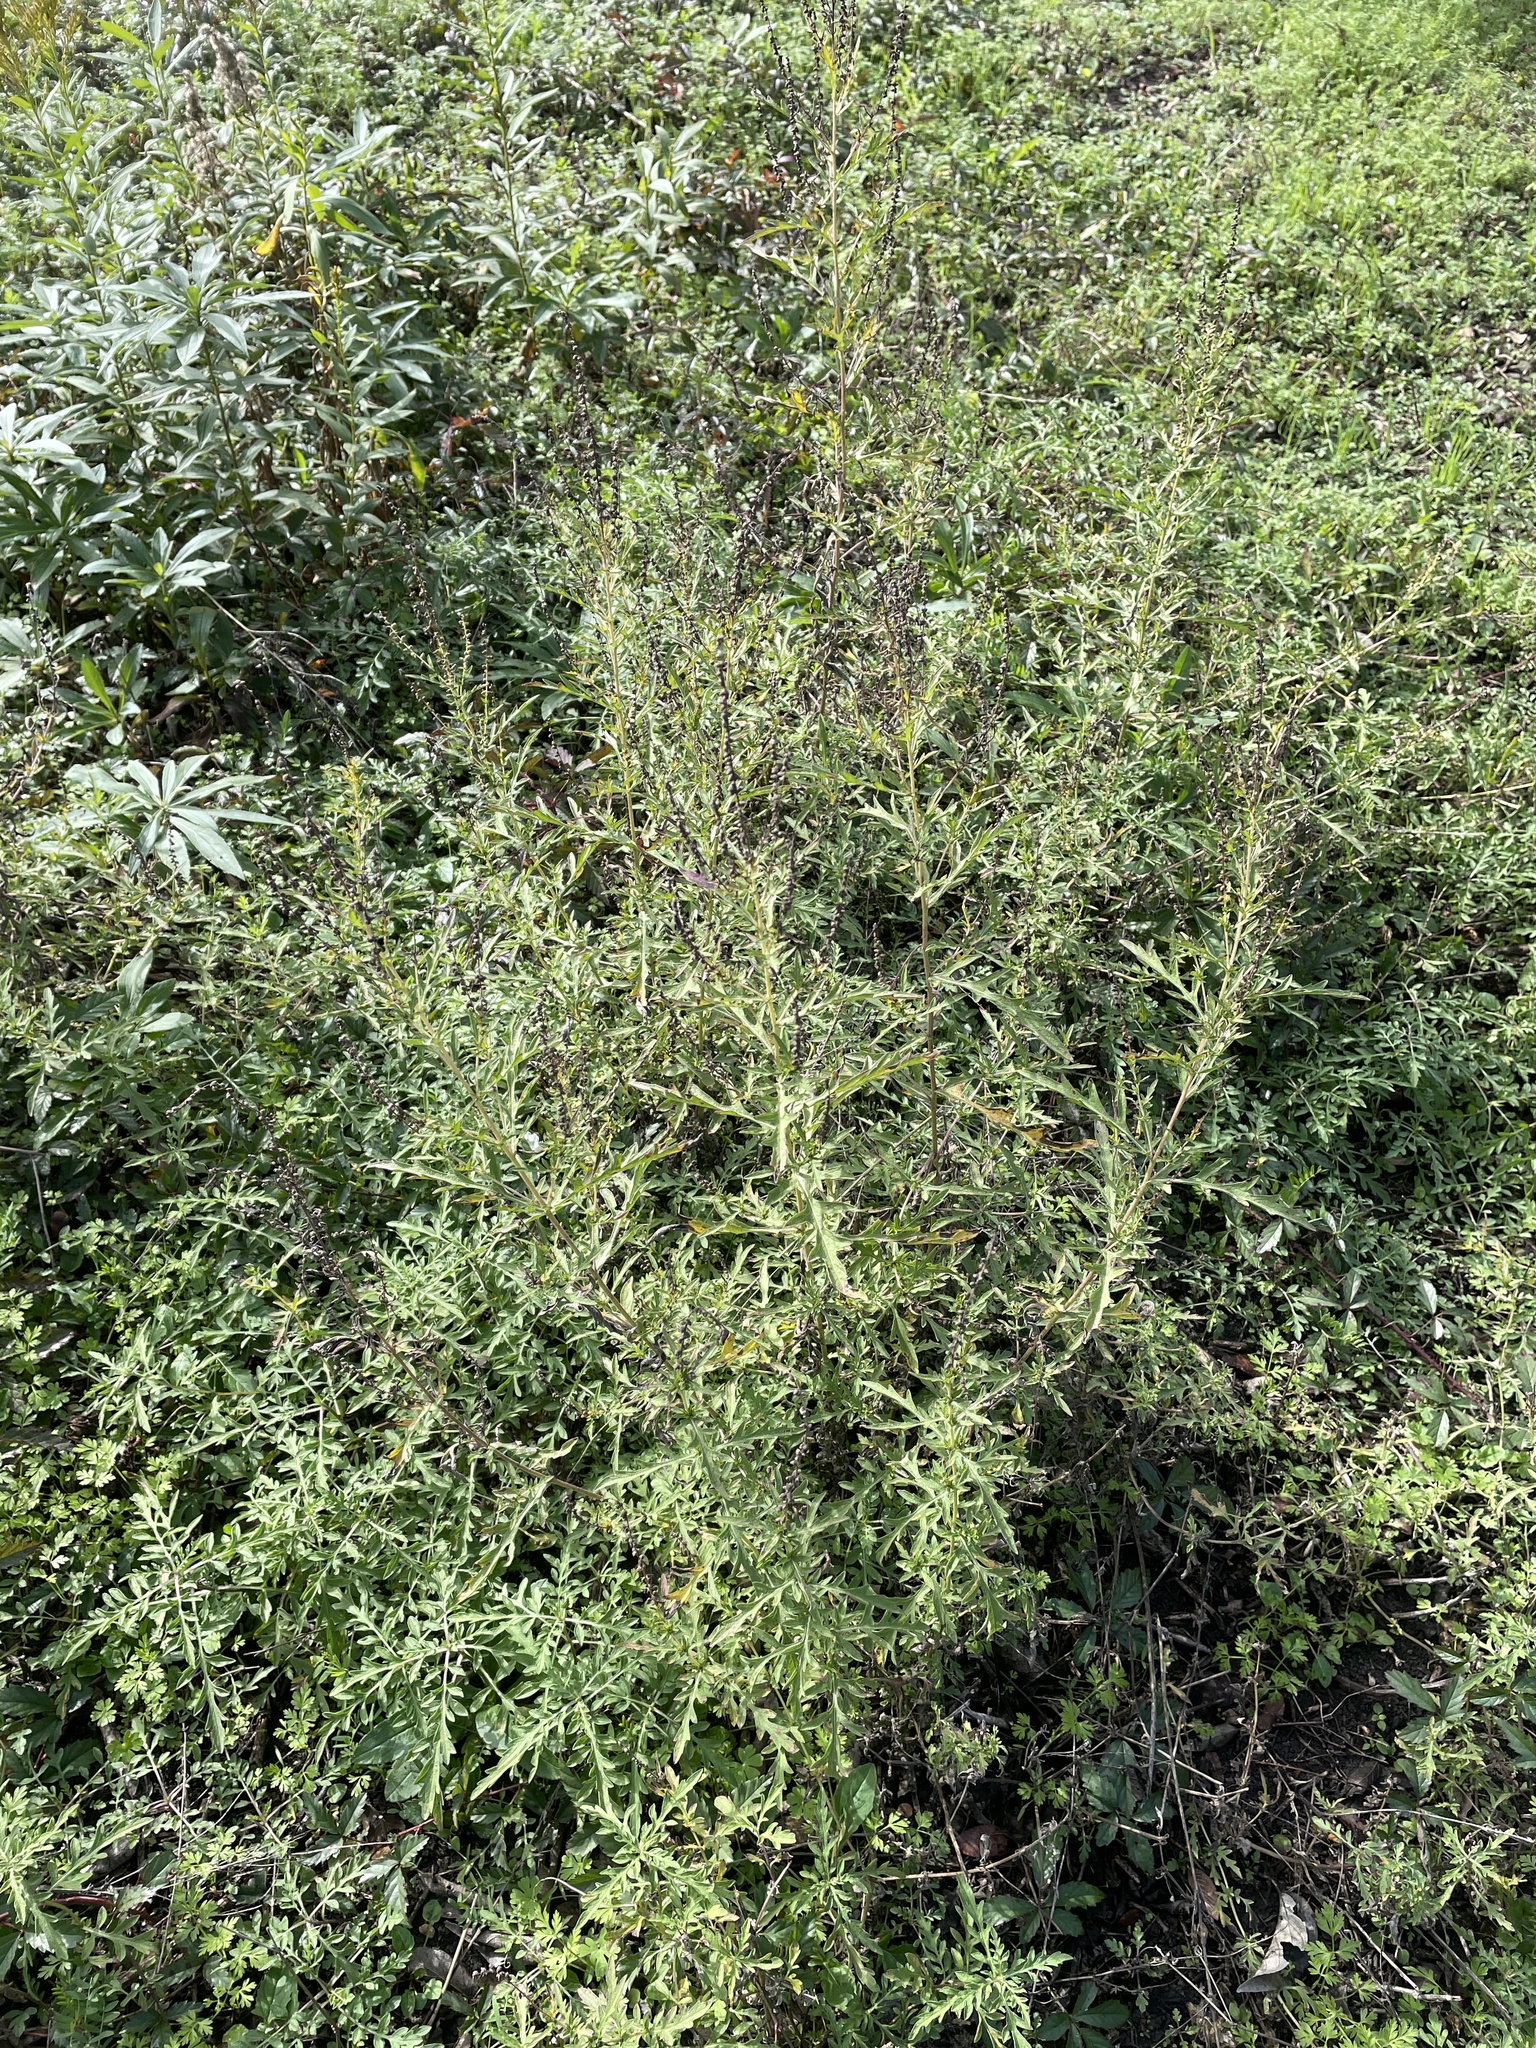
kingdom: Plantae
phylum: Tracheophyta
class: Magnoliopsida
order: Asterales
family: Asteraceae
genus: Ambrosia
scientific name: Ambrosia psilostachya
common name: Perennial ragweed
